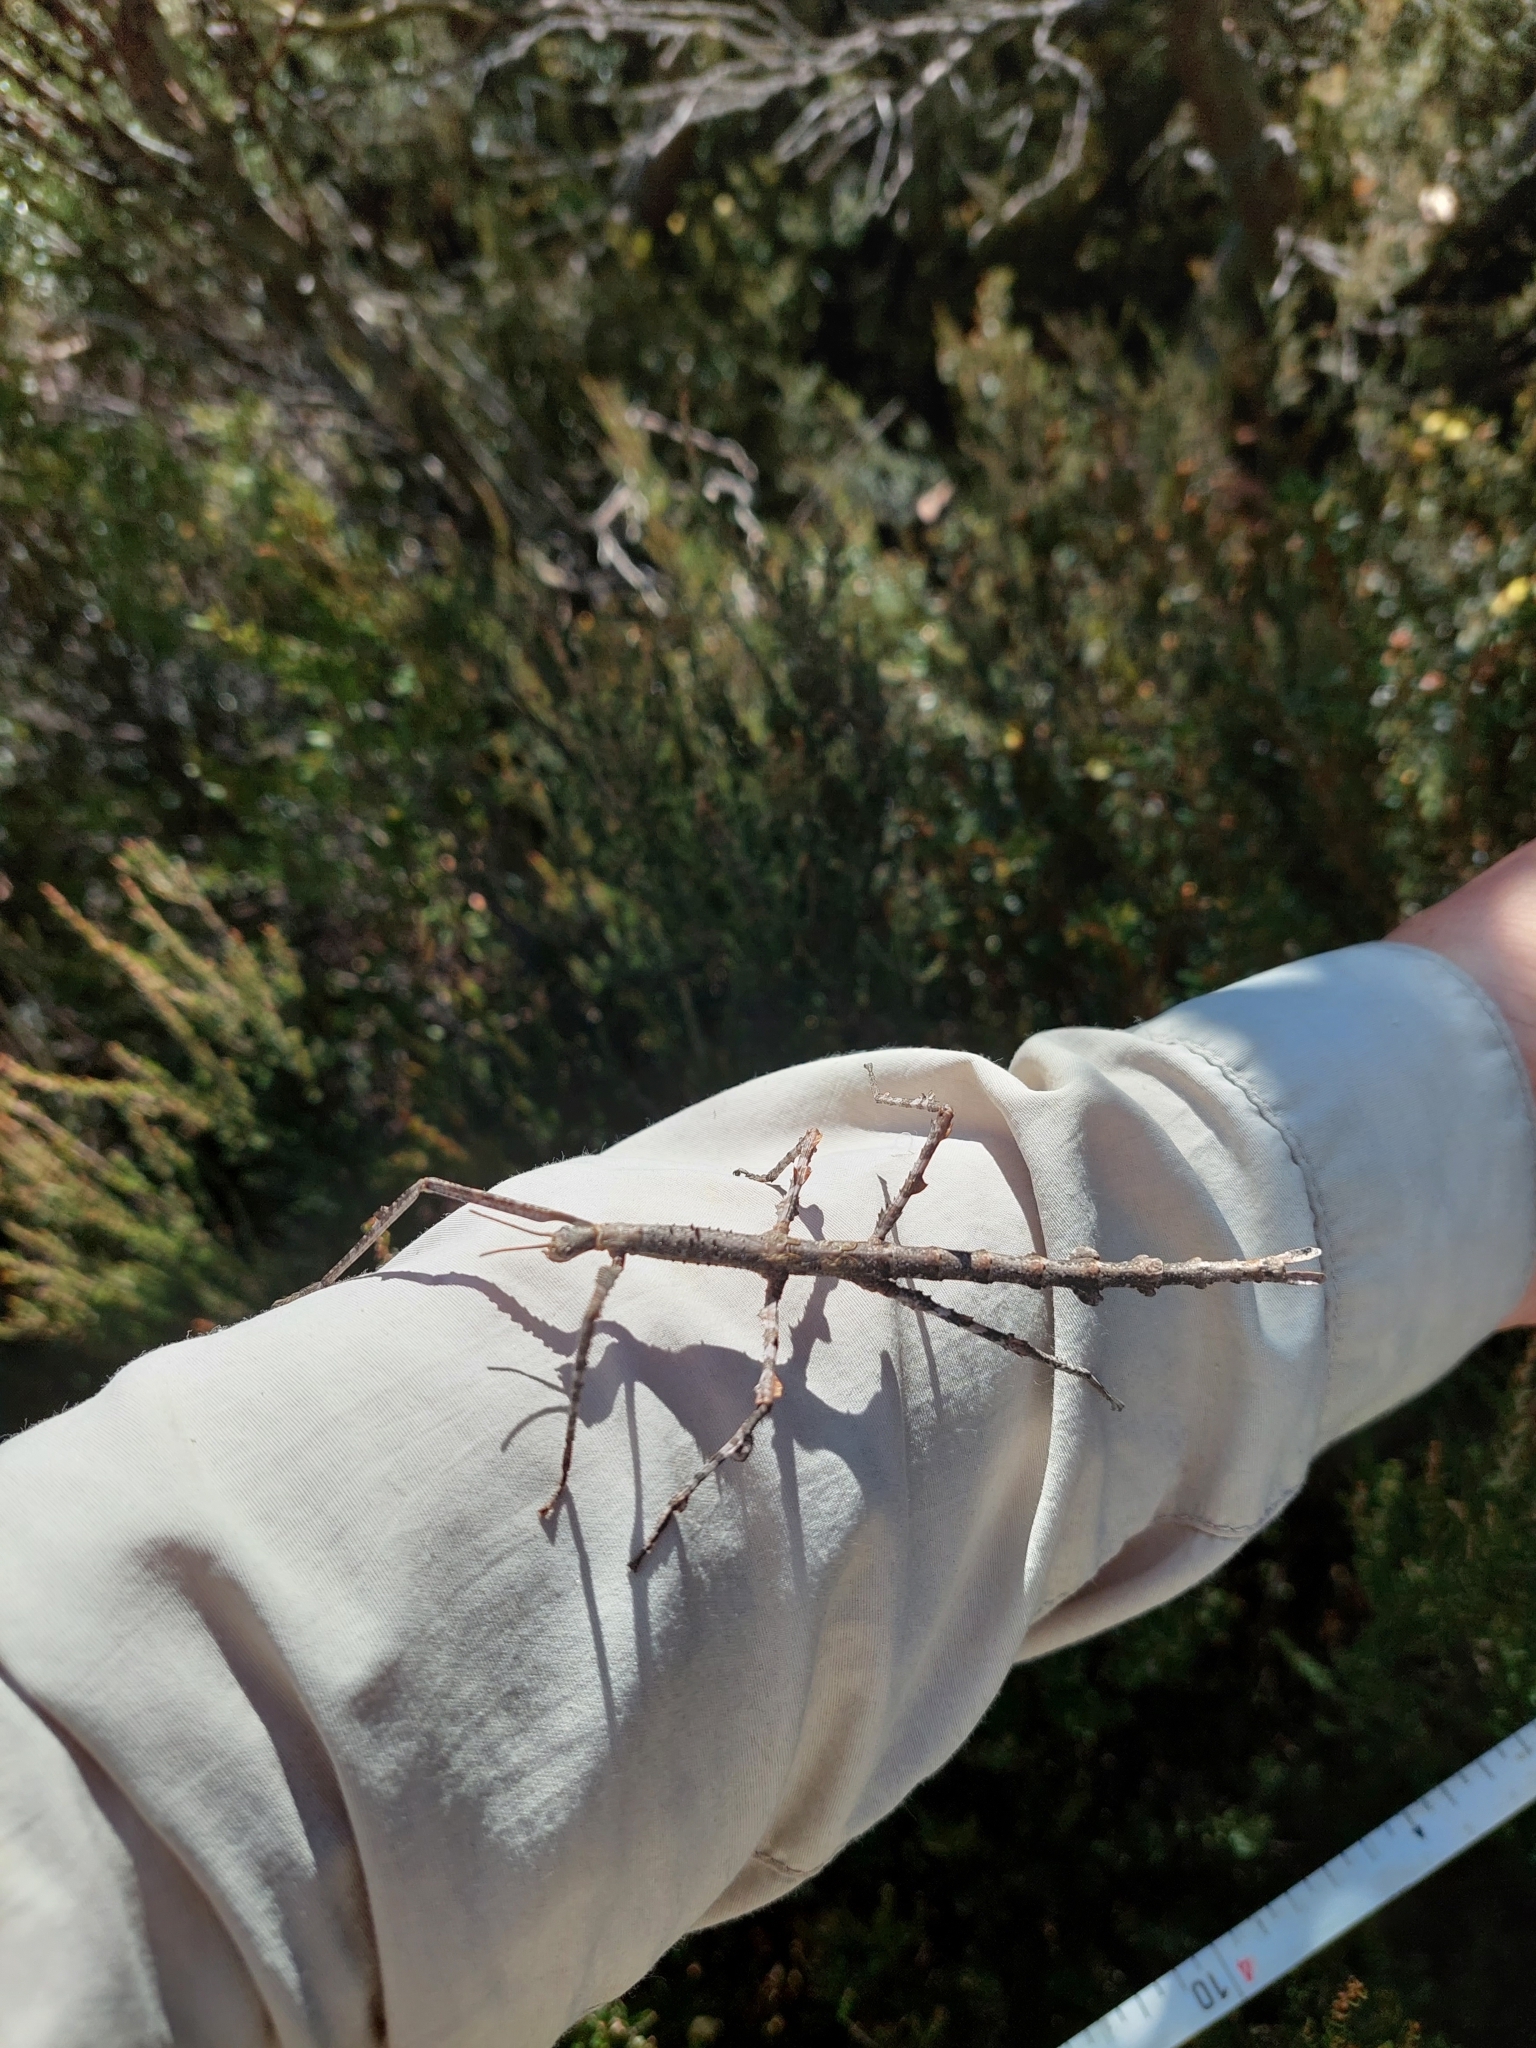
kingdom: Animalia
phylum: Arthropoda
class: Insecta
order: Phasmida
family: Phasmatidae
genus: Ctenomorpha
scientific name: Ctenomorpha marginipennis
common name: Margined-winged stick-insect
